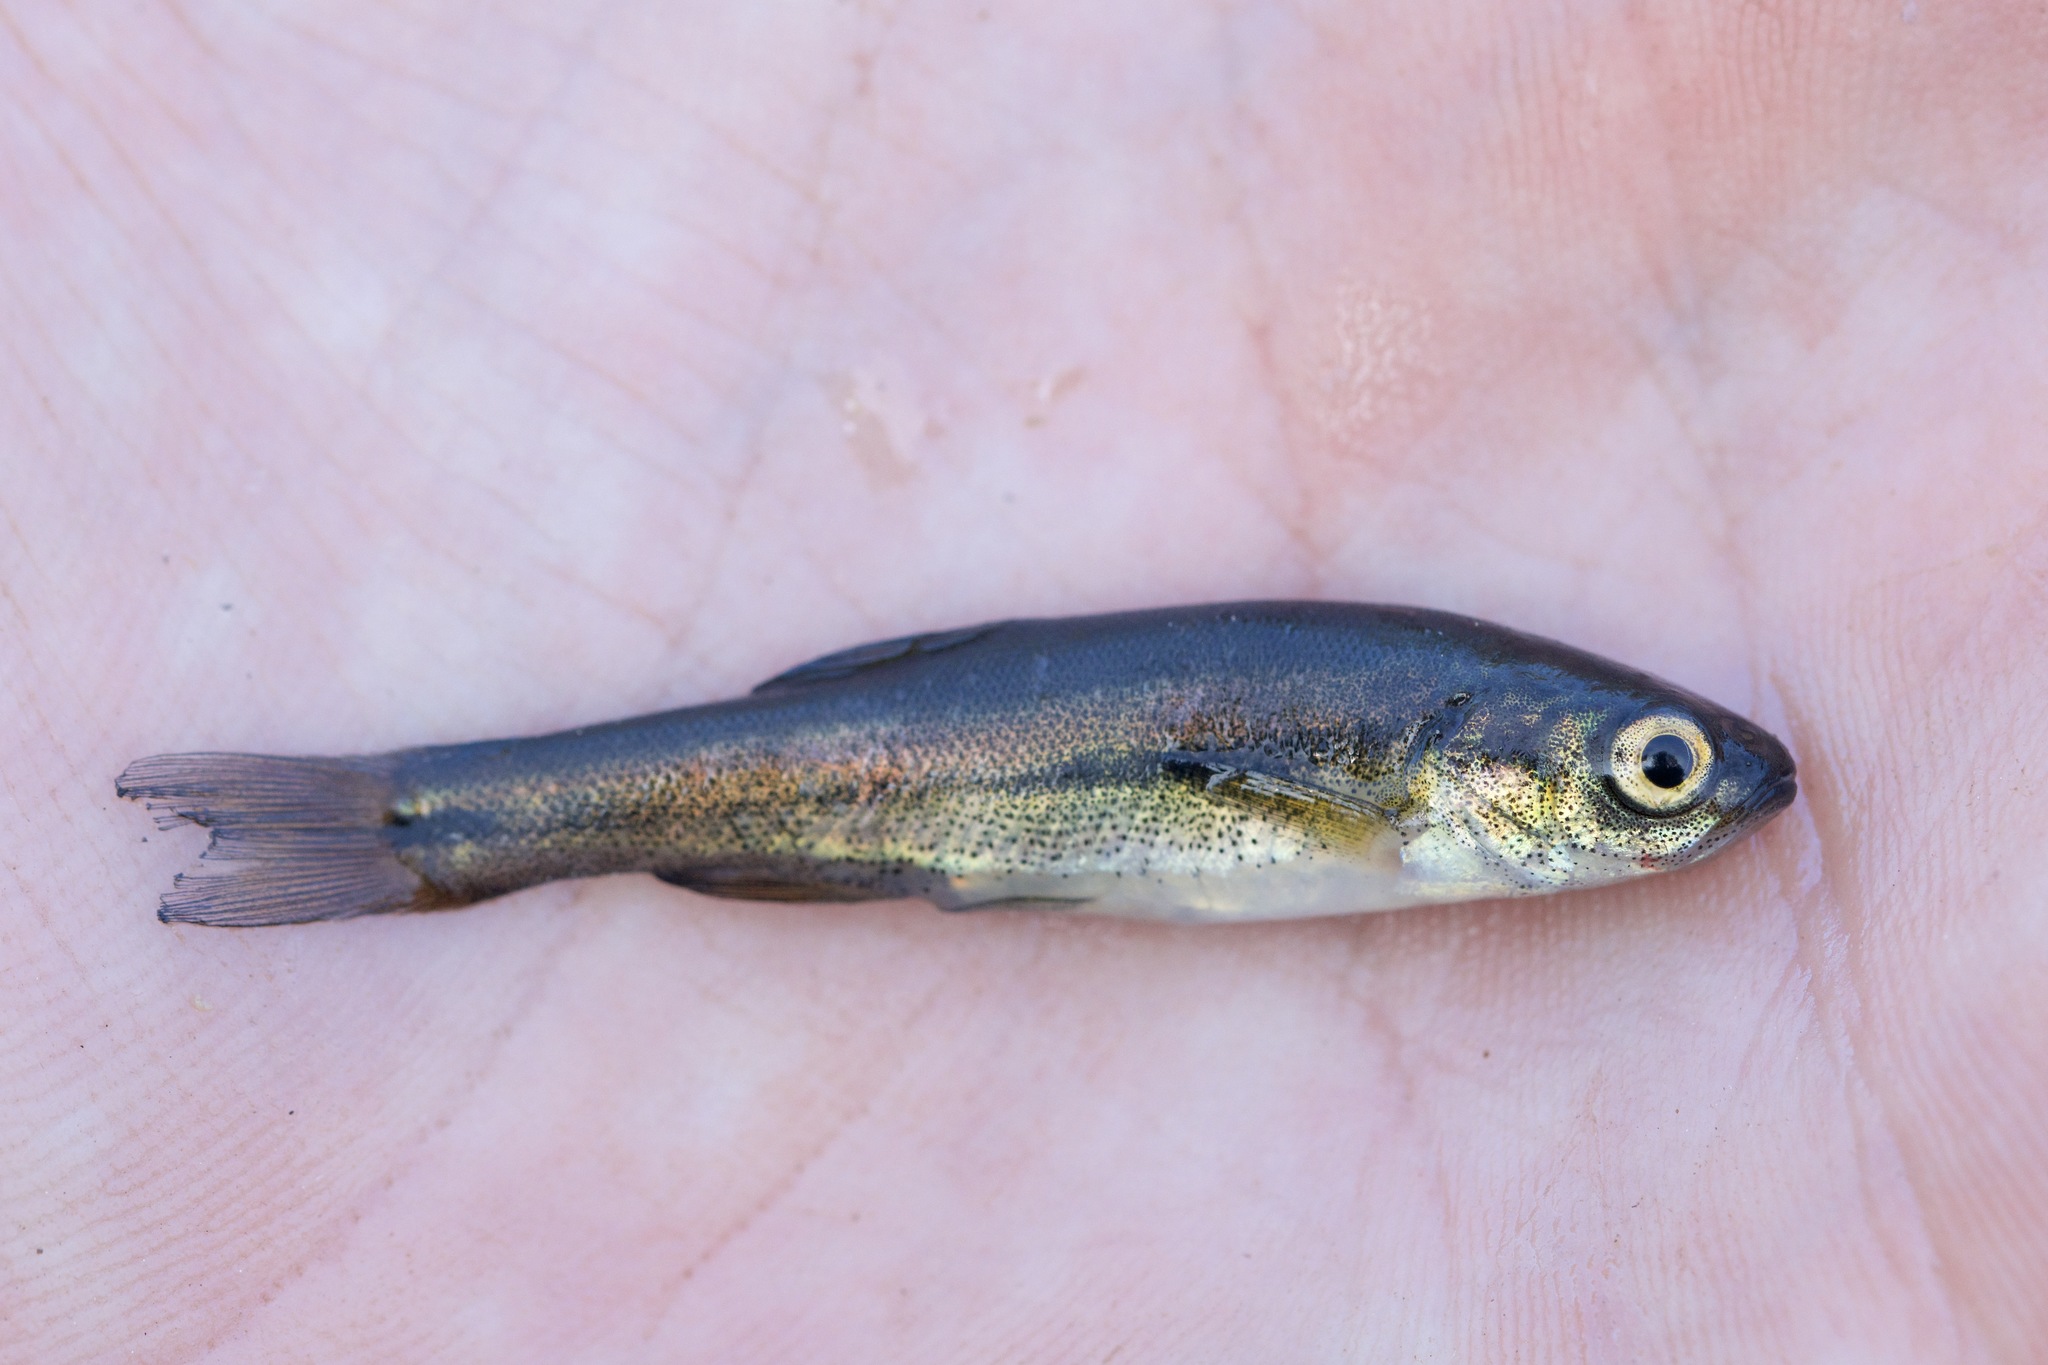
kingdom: Animalia
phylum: Chordata
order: Cypriniformes
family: Cyprinidae
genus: Chrosomus
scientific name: Chrosomus neogaeus
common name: Finescale dace
